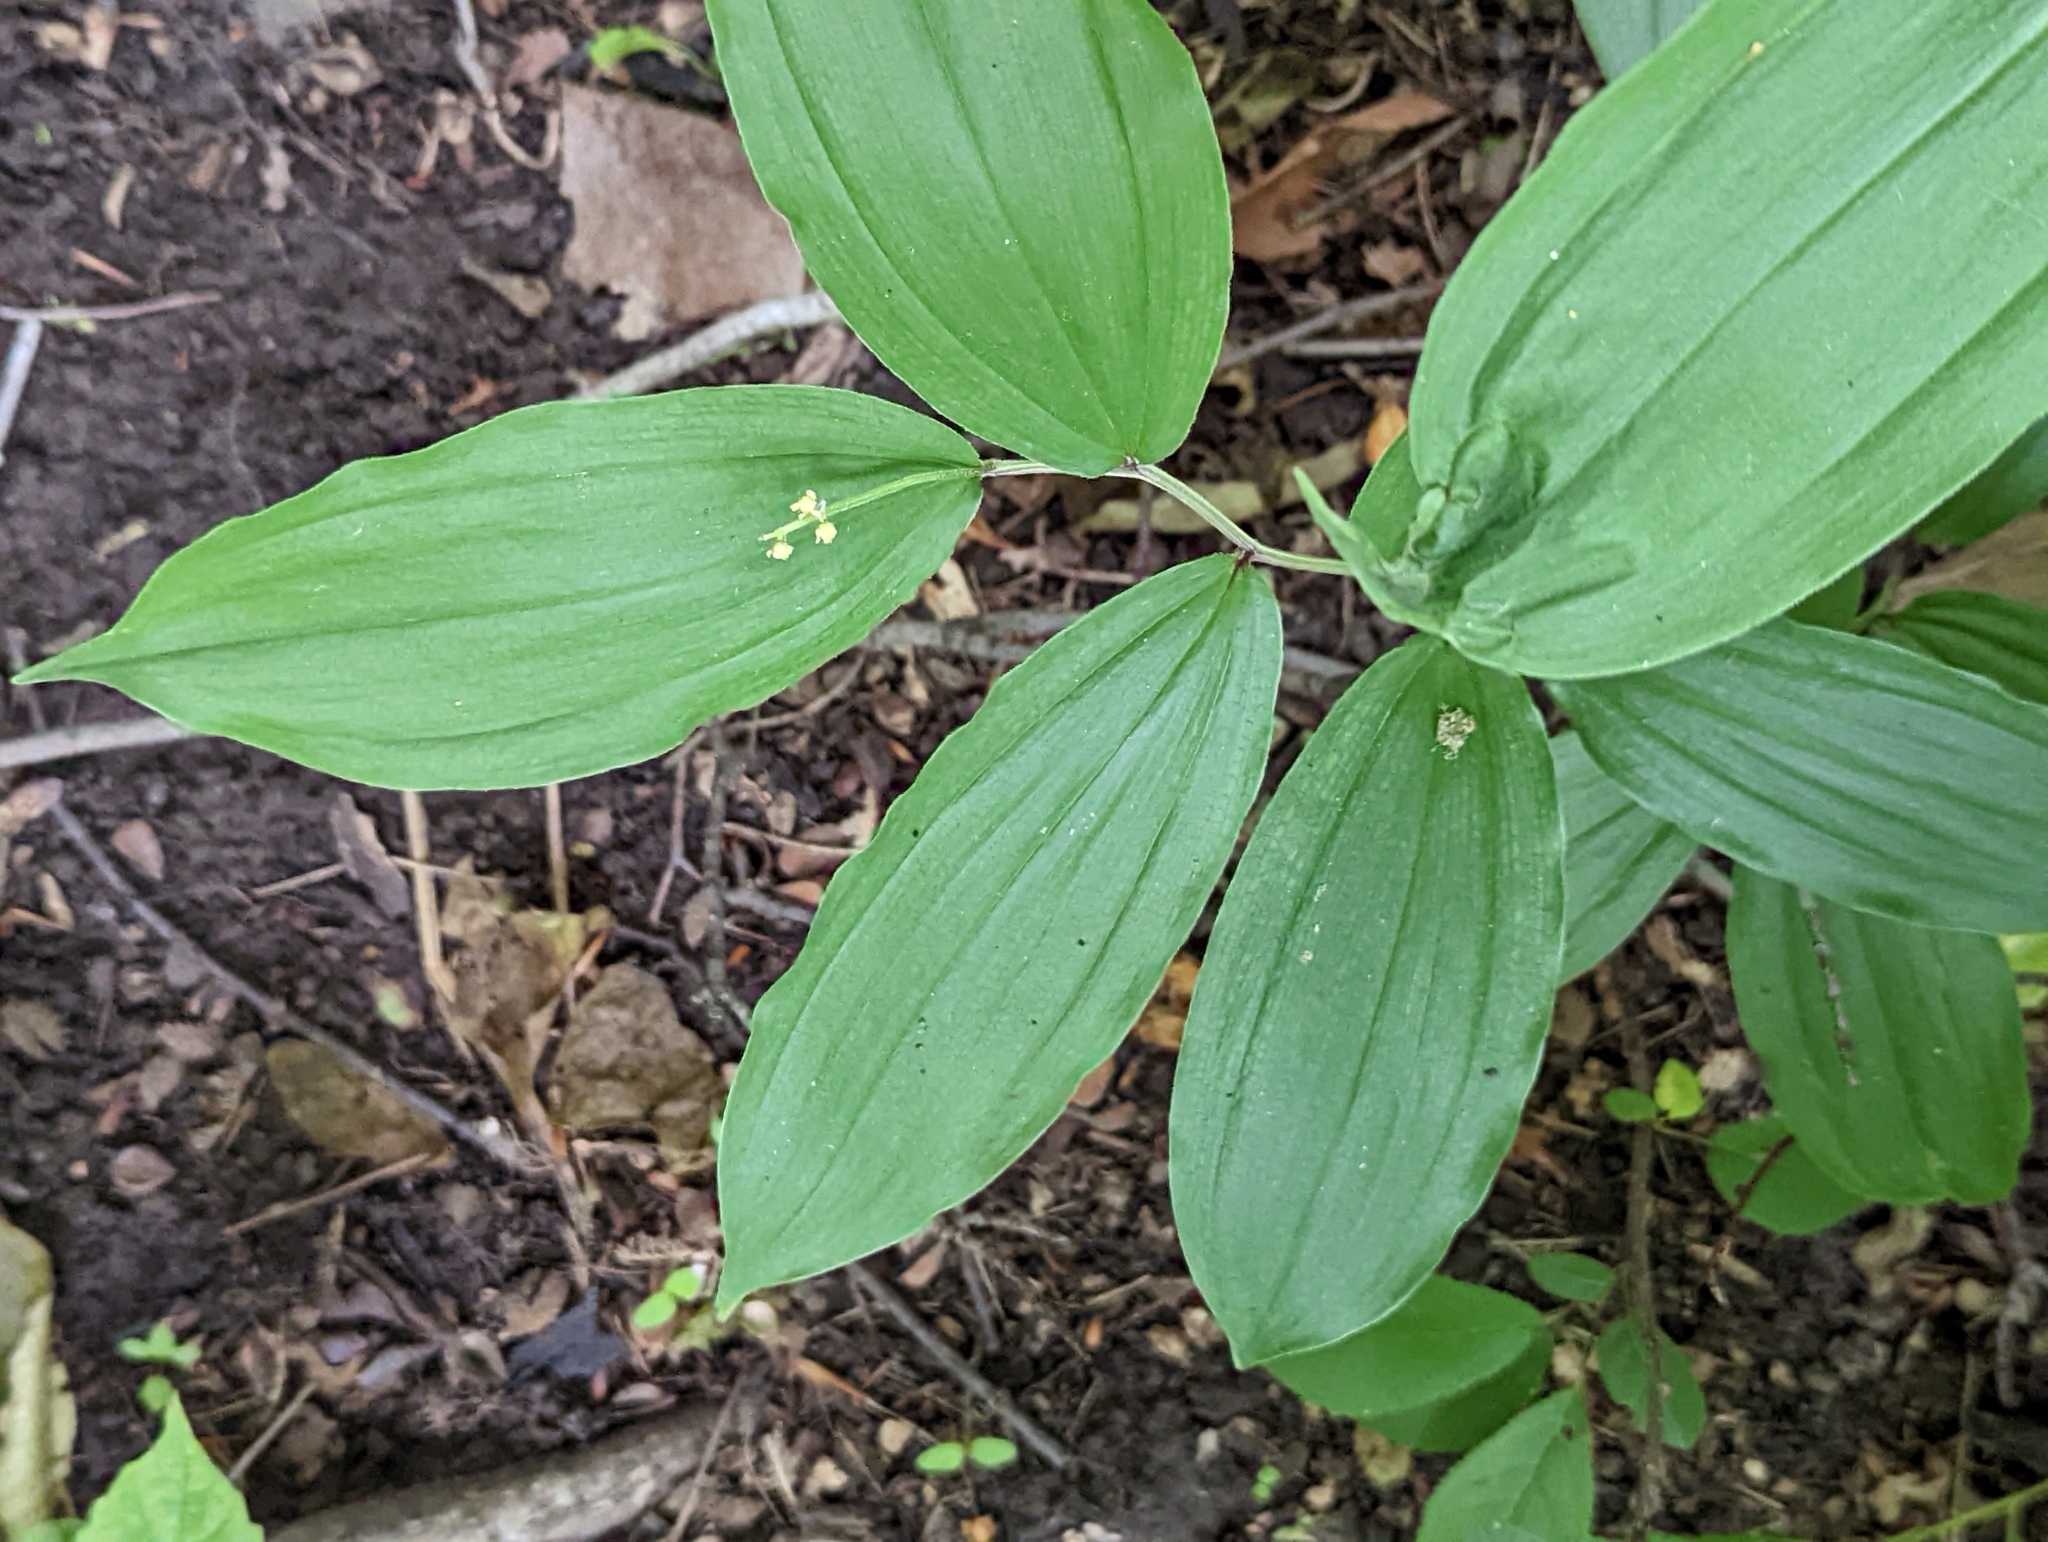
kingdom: Plantae
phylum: Tracheophyta
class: Liliopsida
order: Asparagales
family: Asparagaceae
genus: Maianthemum
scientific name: Maianthemum racemosum
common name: False spikenard
